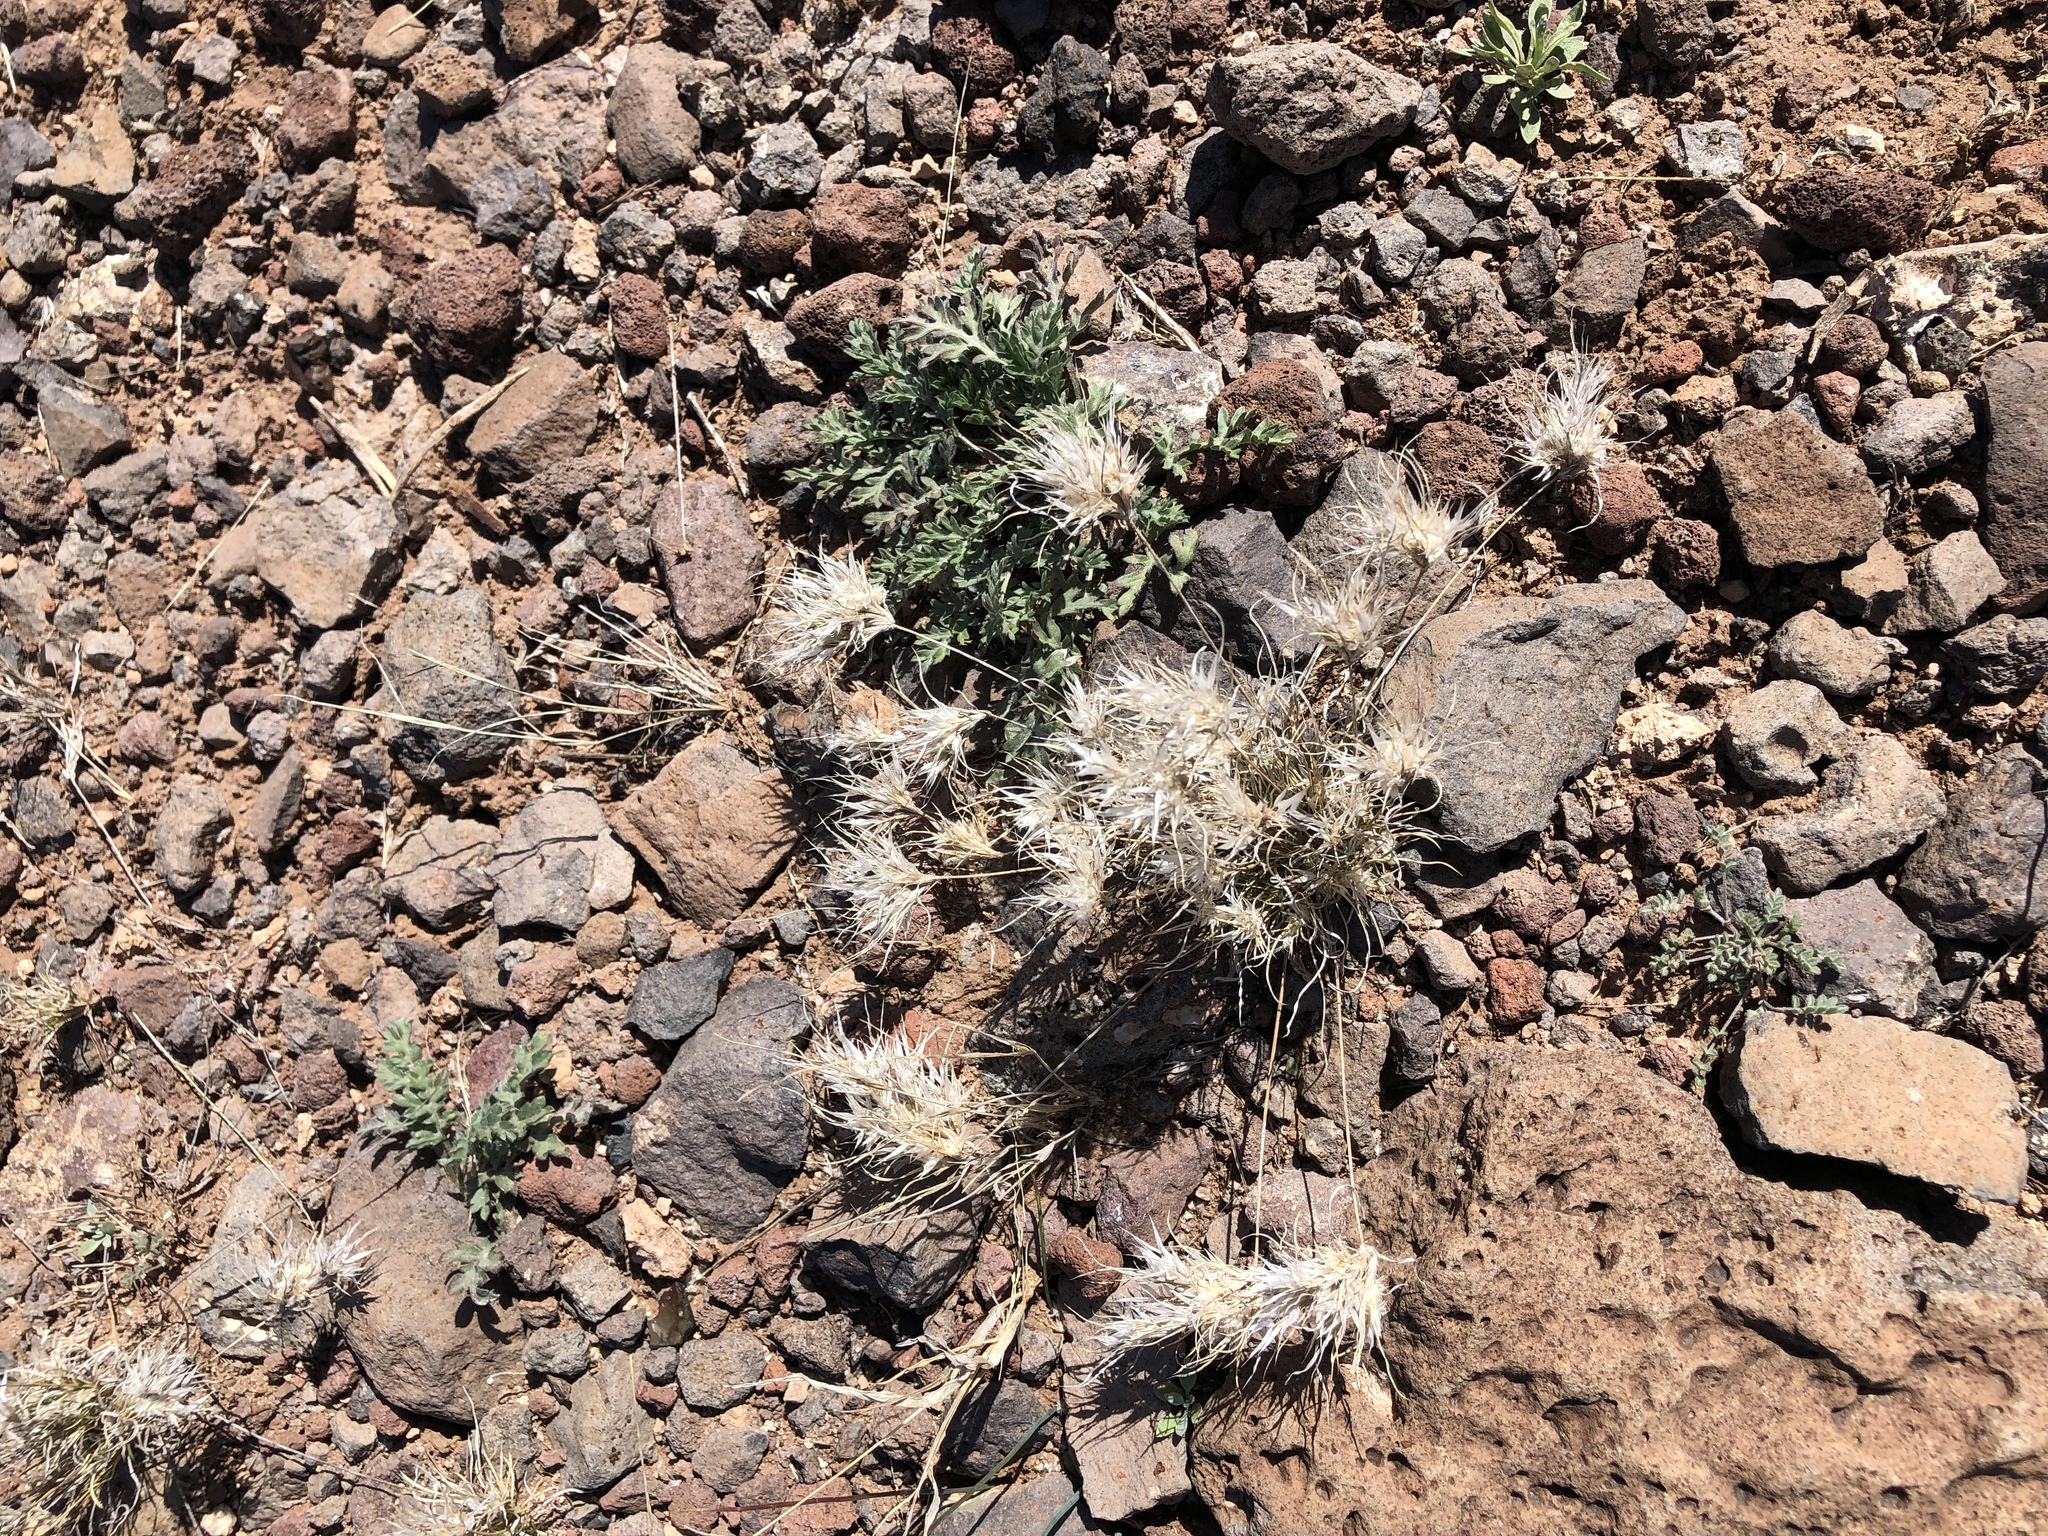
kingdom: Plantae
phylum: Tracheophyta
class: Liliopsida
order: Poales
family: Poaceae
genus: Dasyochloa
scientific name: Dasyochloa pulchella
